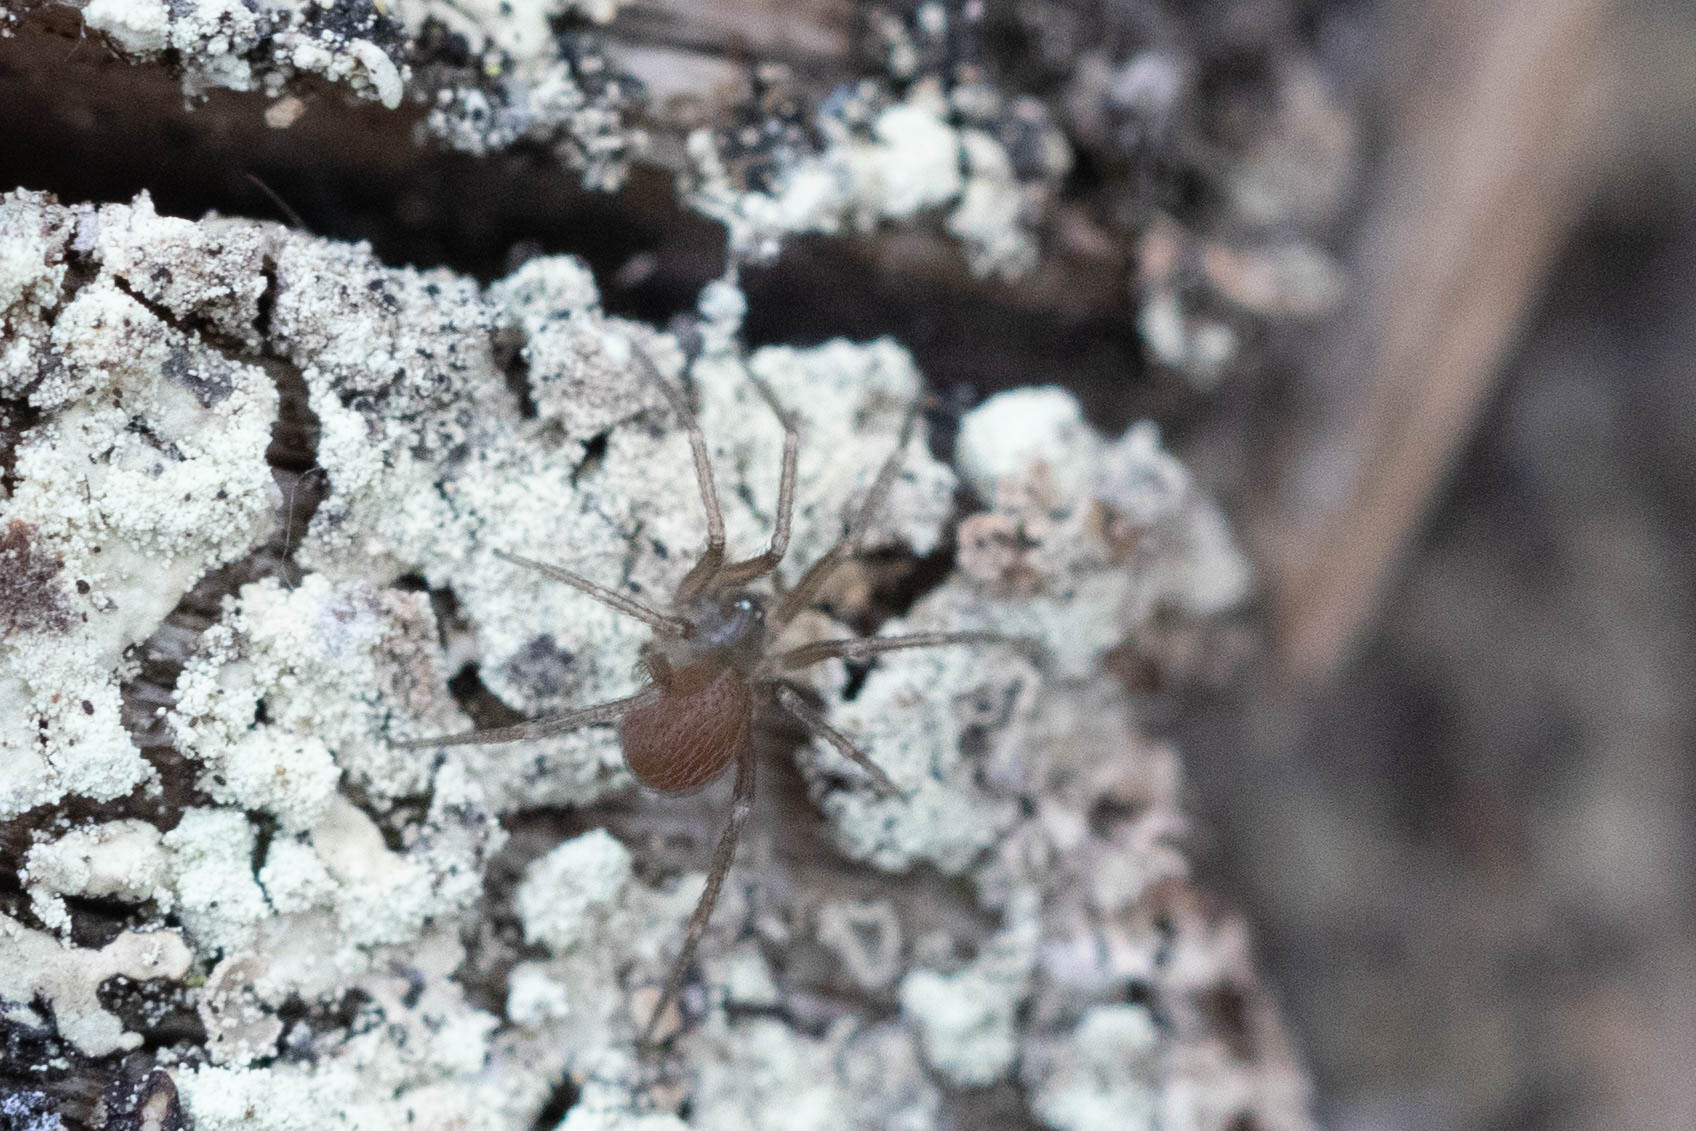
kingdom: Animalia
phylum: Arthropoda
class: Arachnida
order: Araneae
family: Pholcidae
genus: Pholcophora
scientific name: Pholcophora americana
